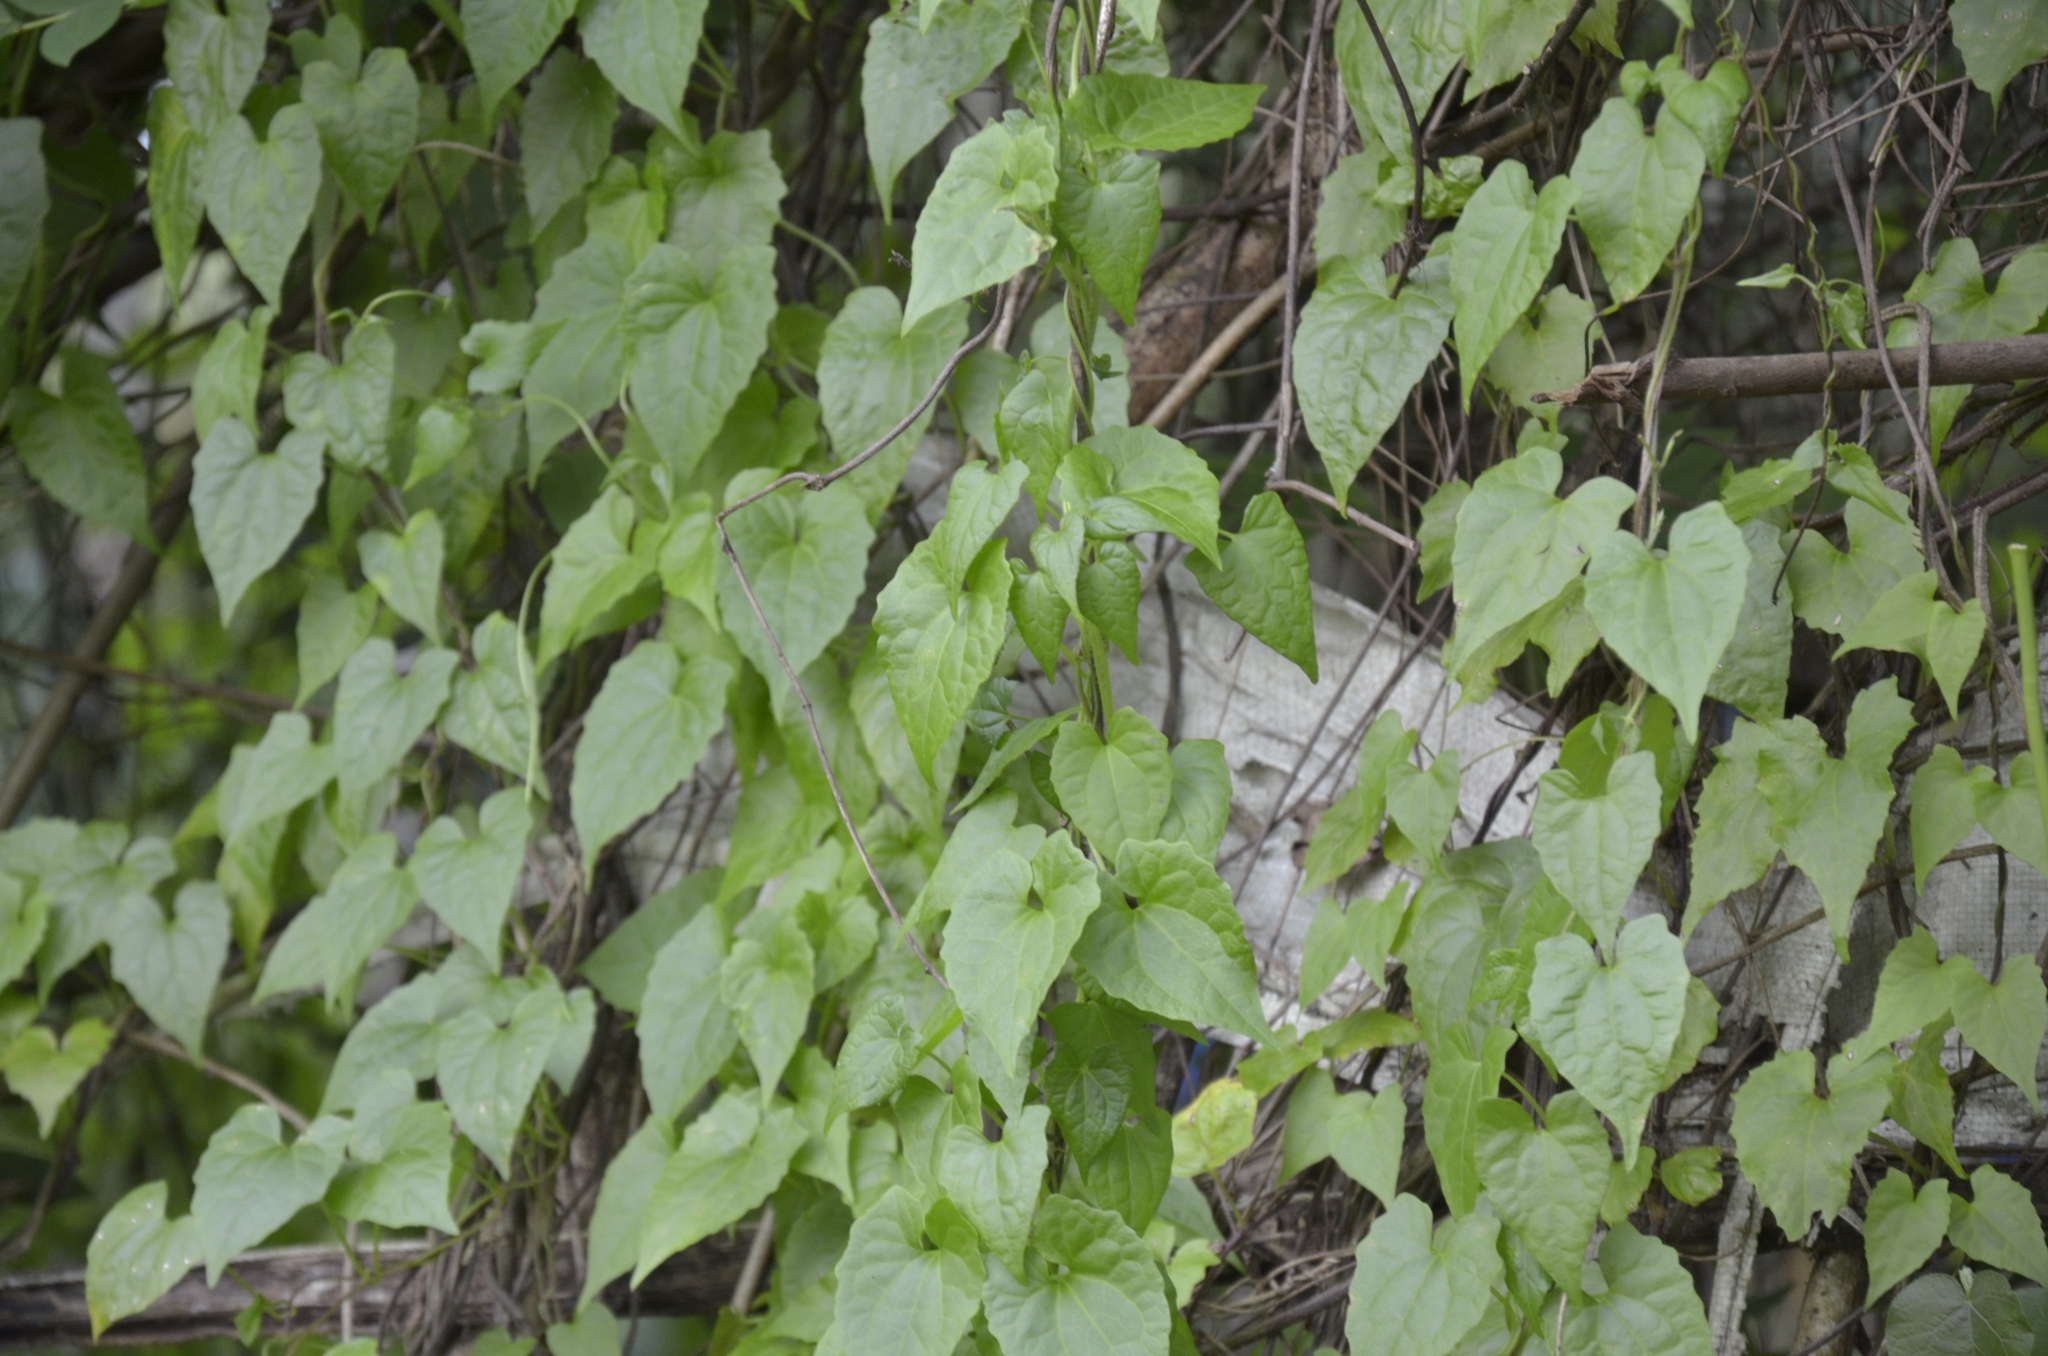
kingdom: Plantae
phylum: Tracheophyta
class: Magnoliopsida
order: Asterales
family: Asteraceae
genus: Mikania
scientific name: Mikania micrantha
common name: Mile-a-minute
